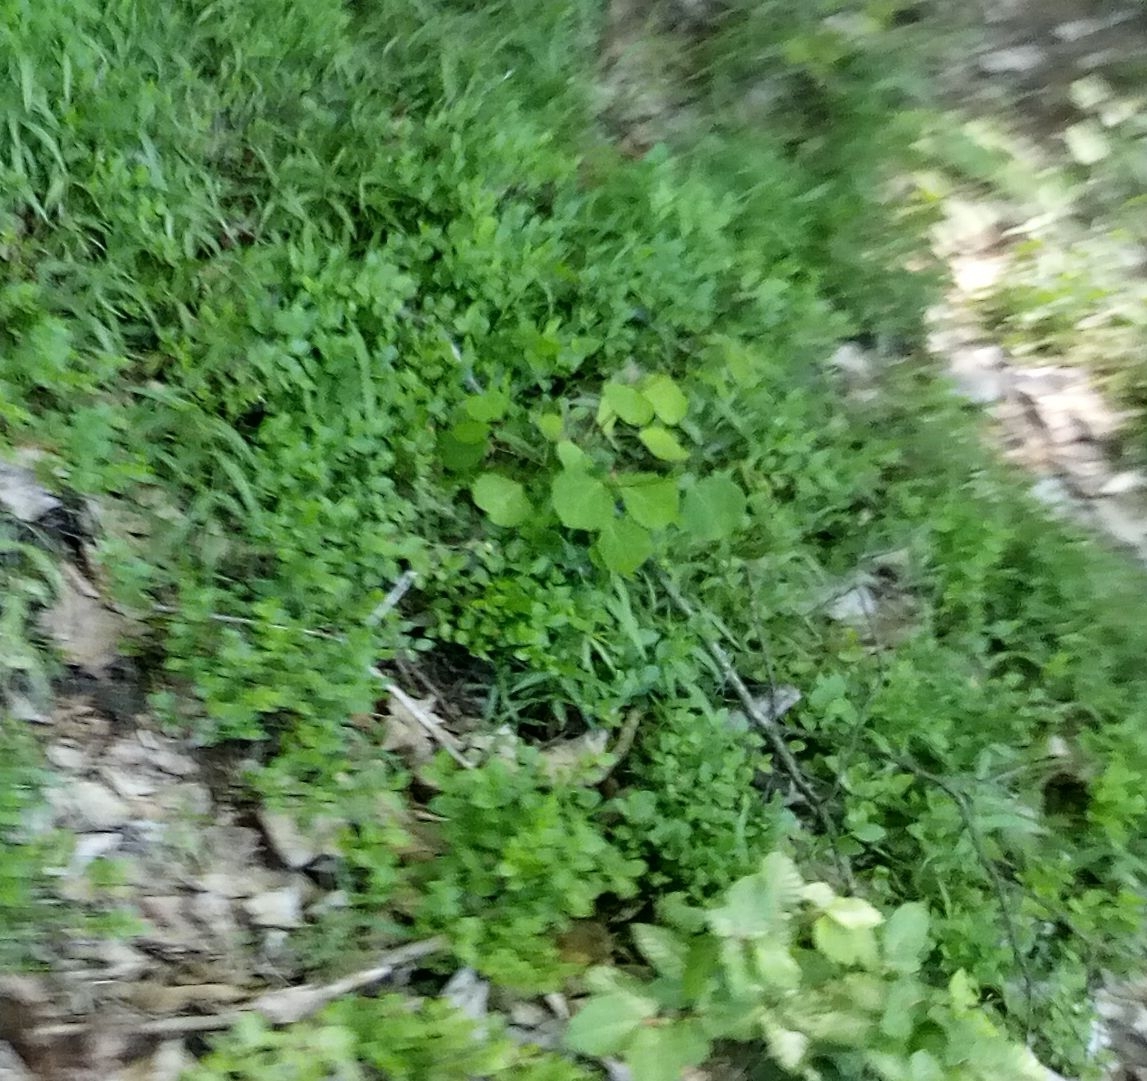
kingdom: Plantae
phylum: Tracheophyta
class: Magnoliopsida
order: Malpighiales
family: Salicaceae
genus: Populus
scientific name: Populus tremula
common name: European aspen
